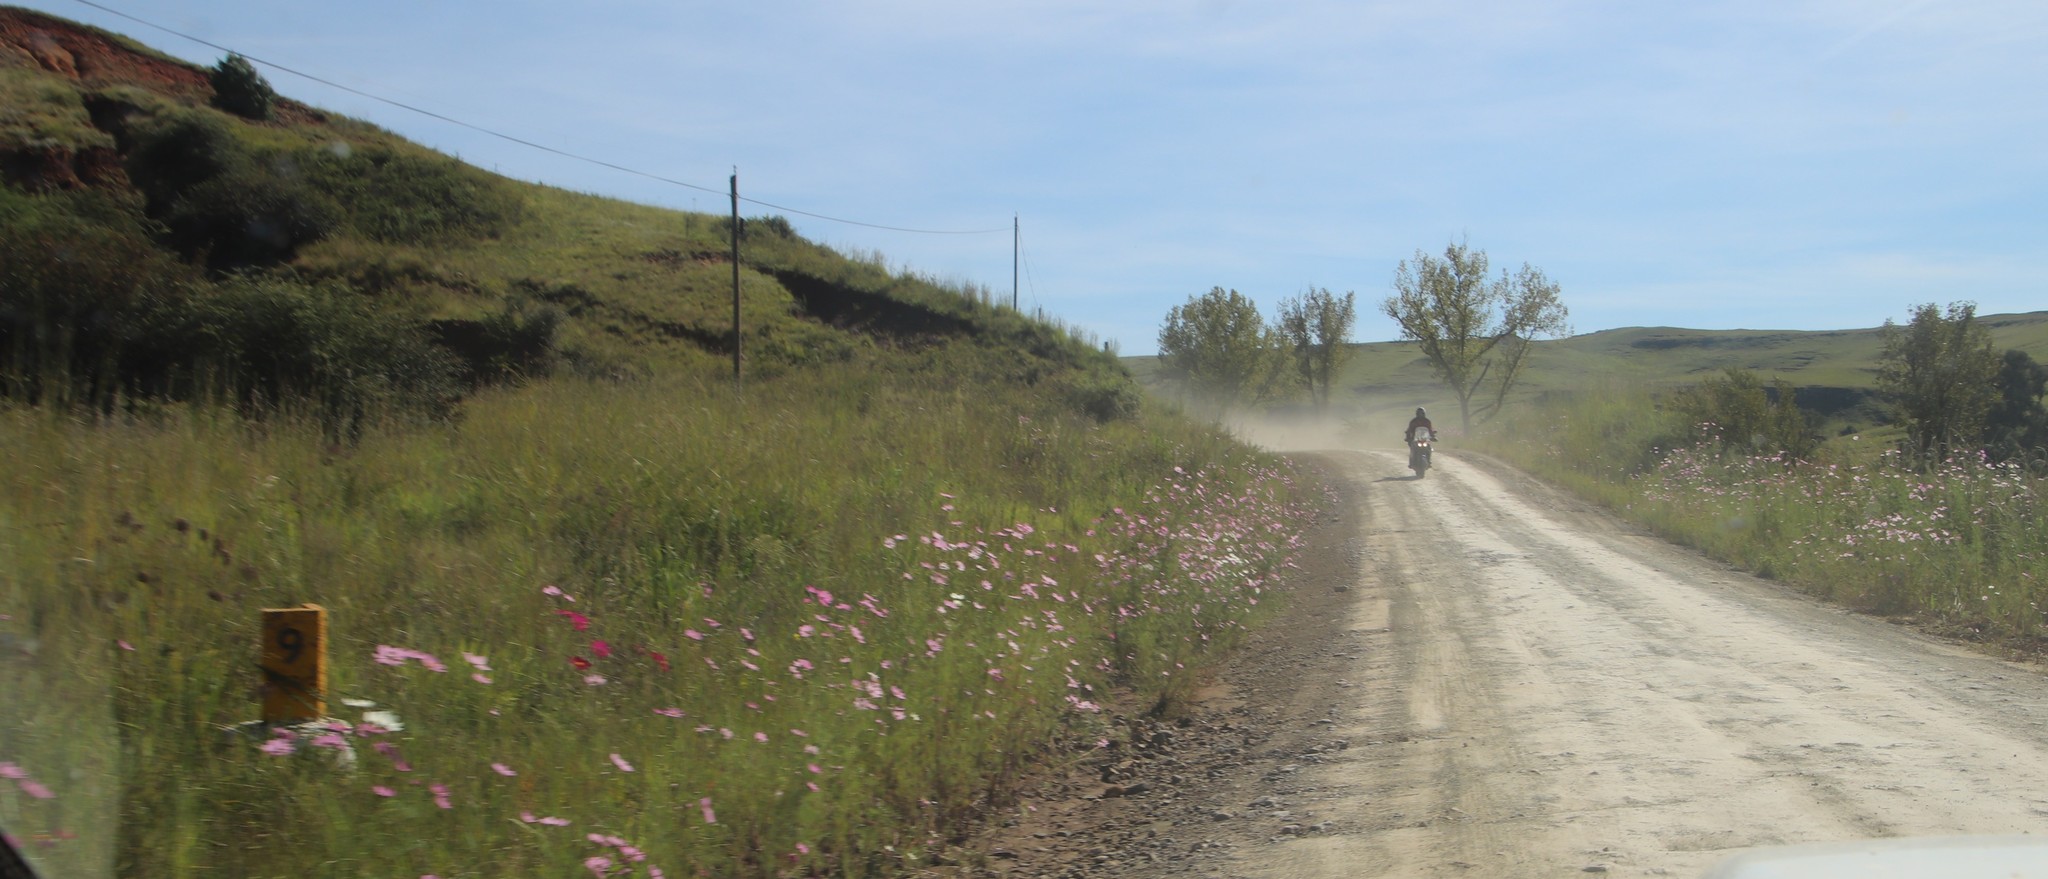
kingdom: Plantae
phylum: Tracheophyta
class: Magnoliopsida
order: Asterales
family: Asteraceae
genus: Cosmos
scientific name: Cosmos bipinnatus
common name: Garden cosmos
